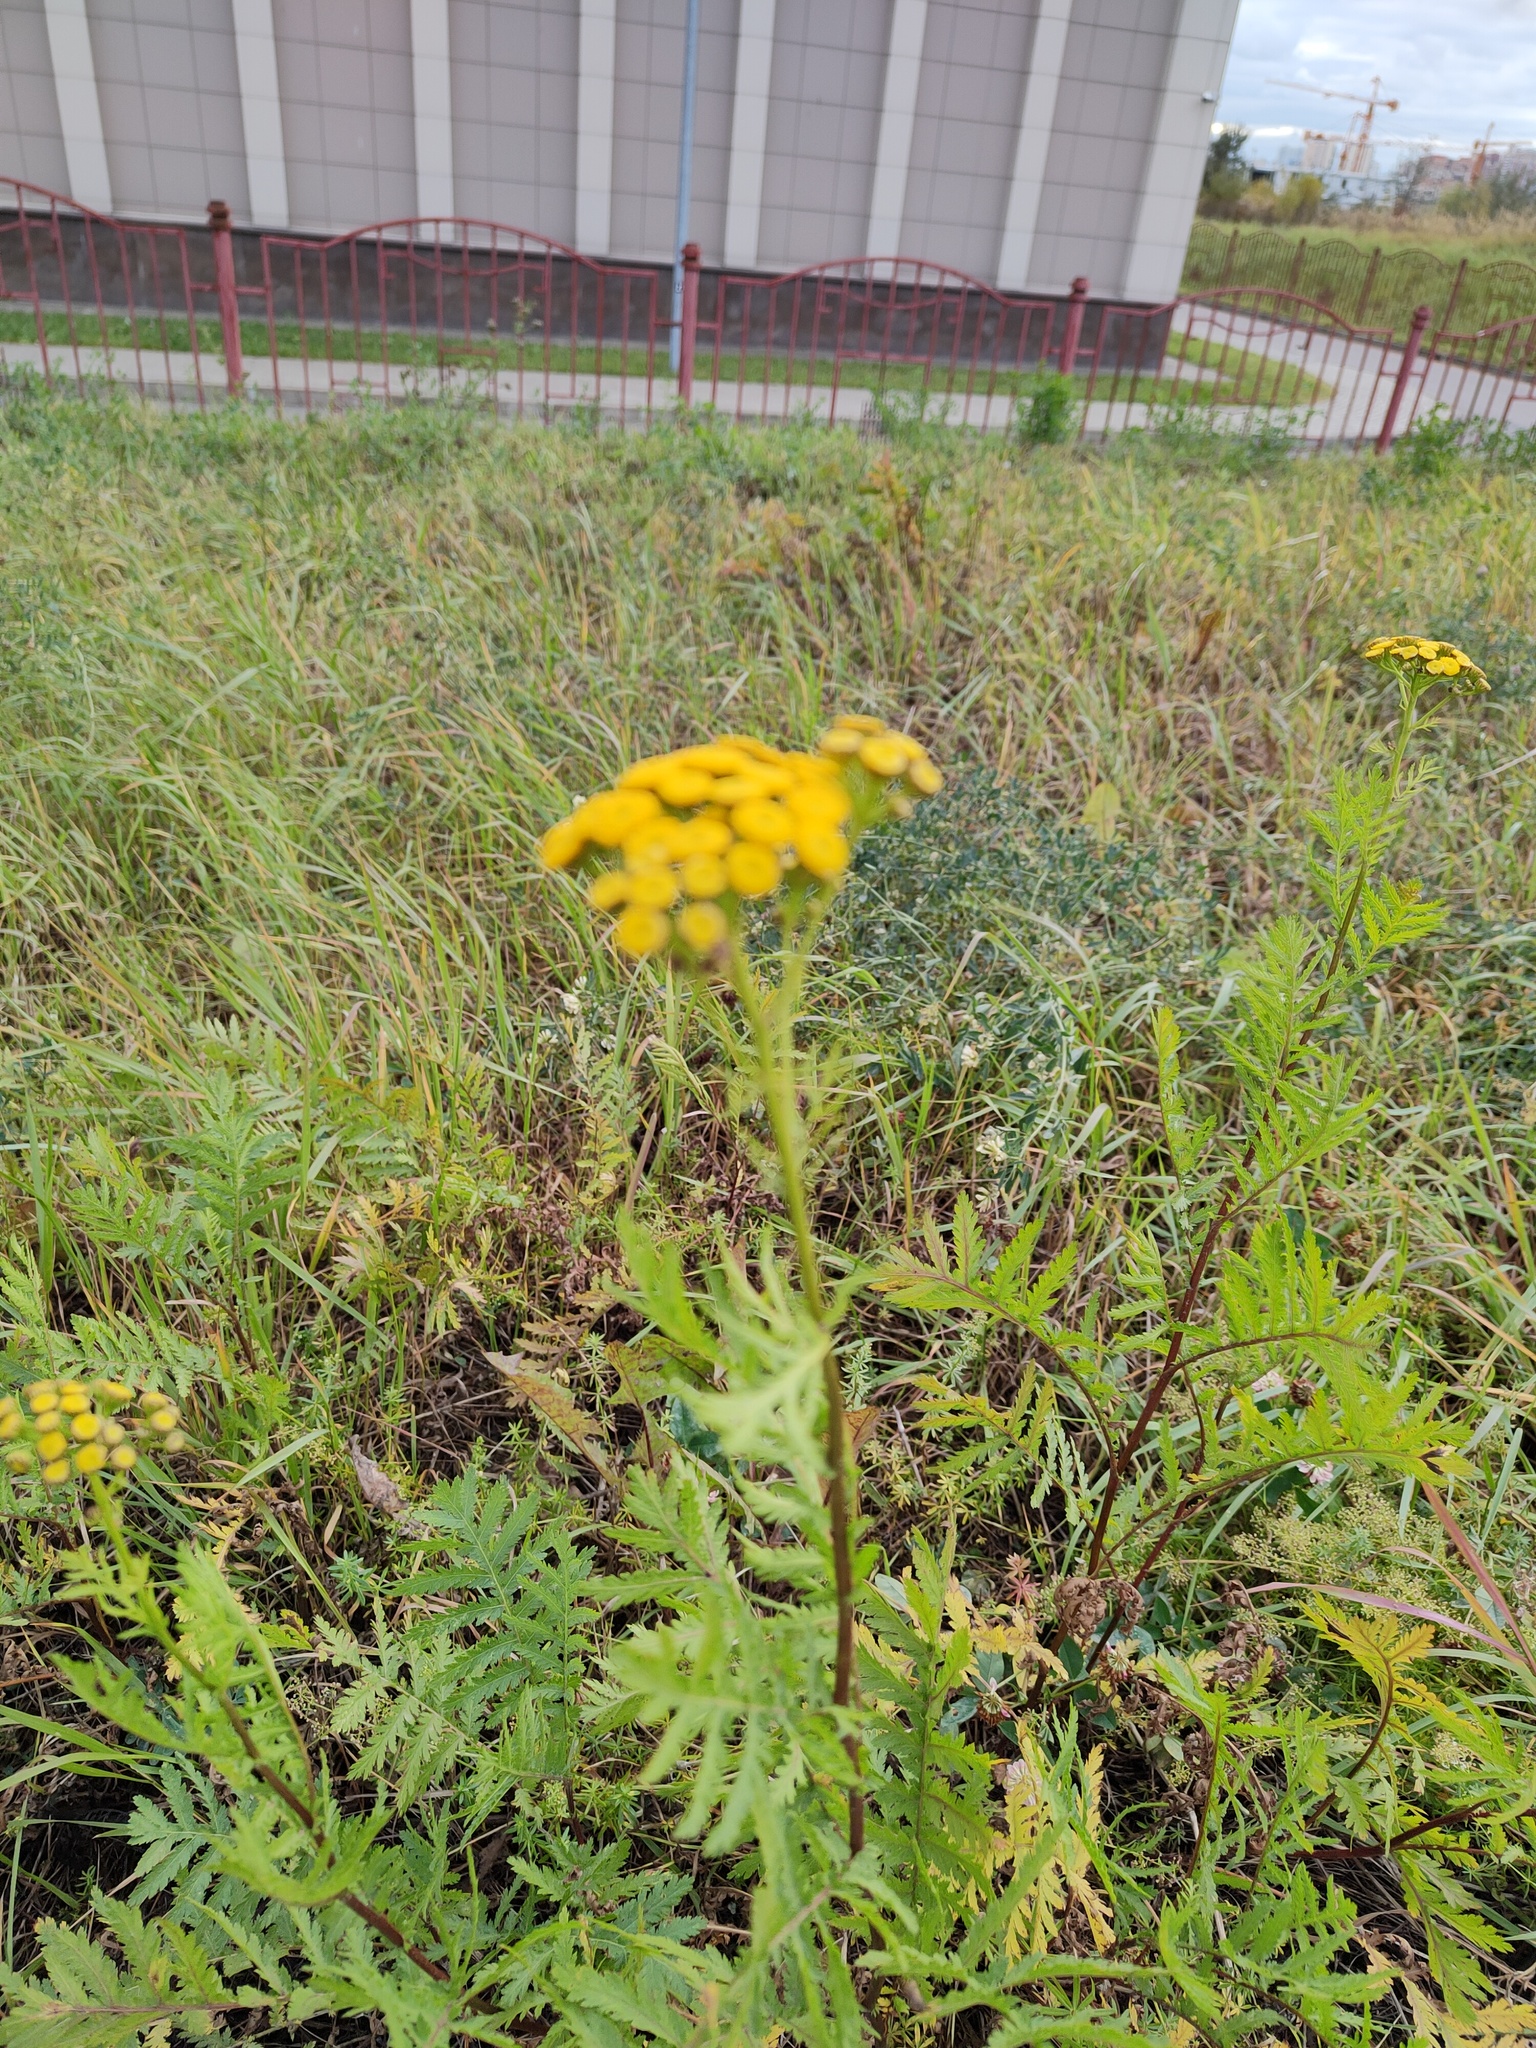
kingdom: Plantae
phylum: Tracheophyta
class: Magnoliopsida
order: Asterales
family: Asteraceae
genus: Tanacetum
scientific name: Tanacetum vulgare
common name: Common tansy
